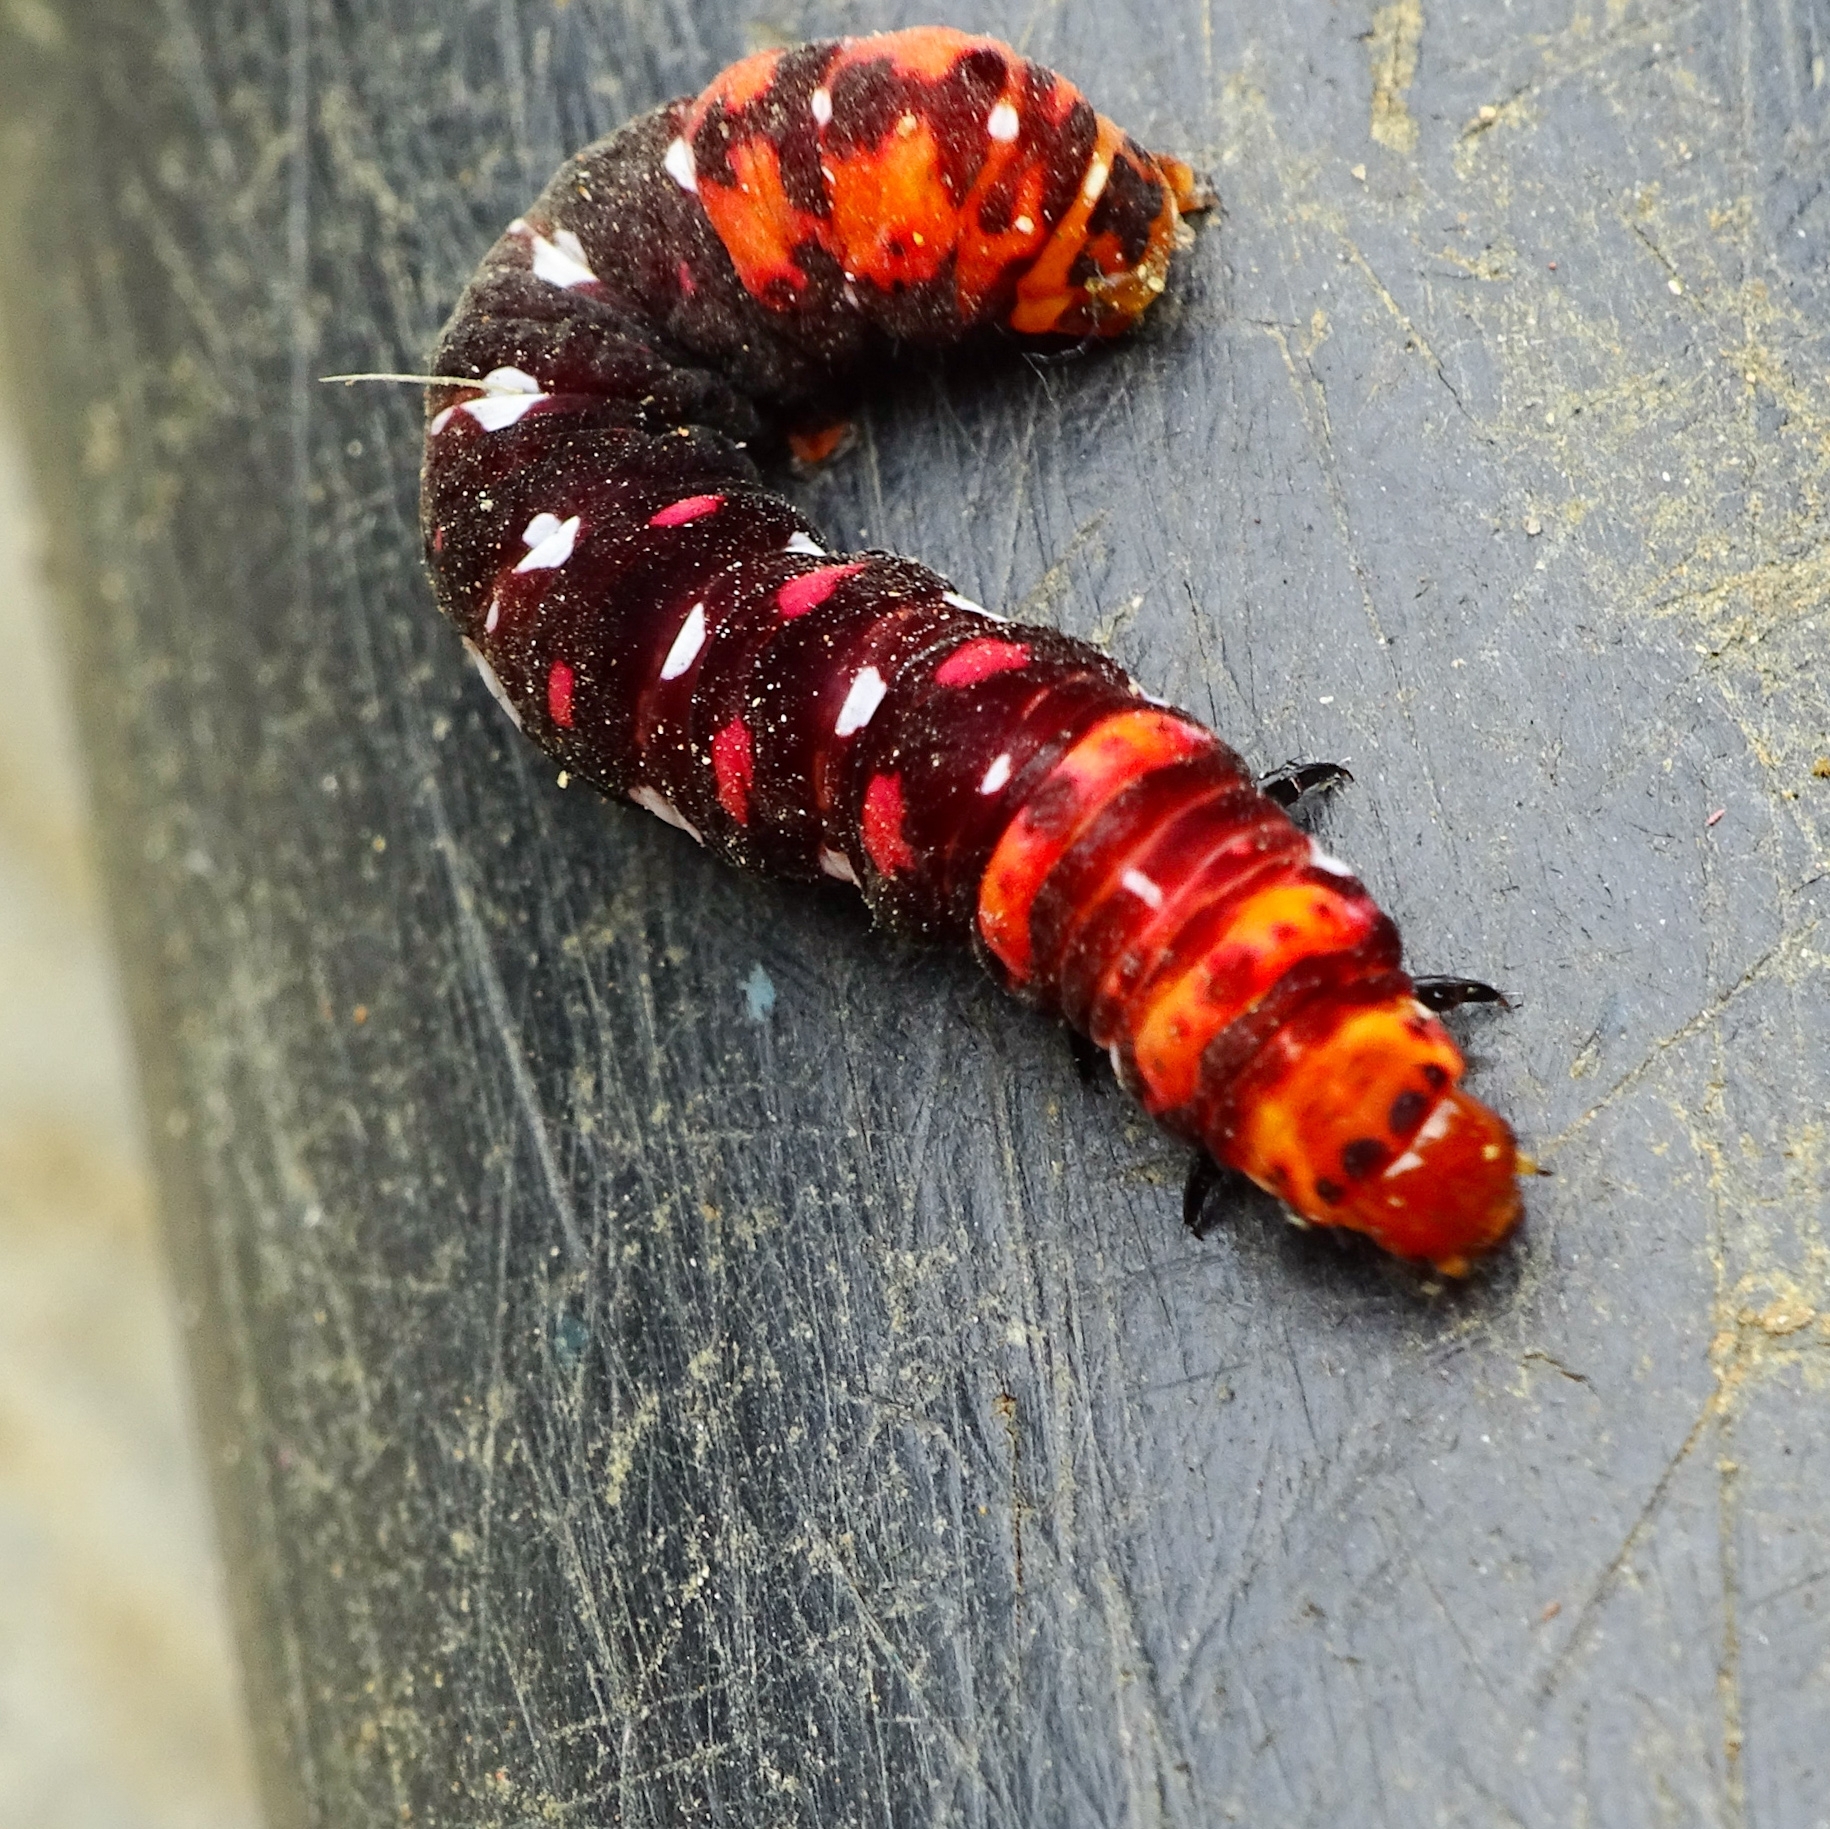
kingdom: Animalia
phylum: Arthropoda
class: Insecta
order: Lepidoptera
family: Noctuidae
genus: Polytela
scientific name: Polytela gloriosae
